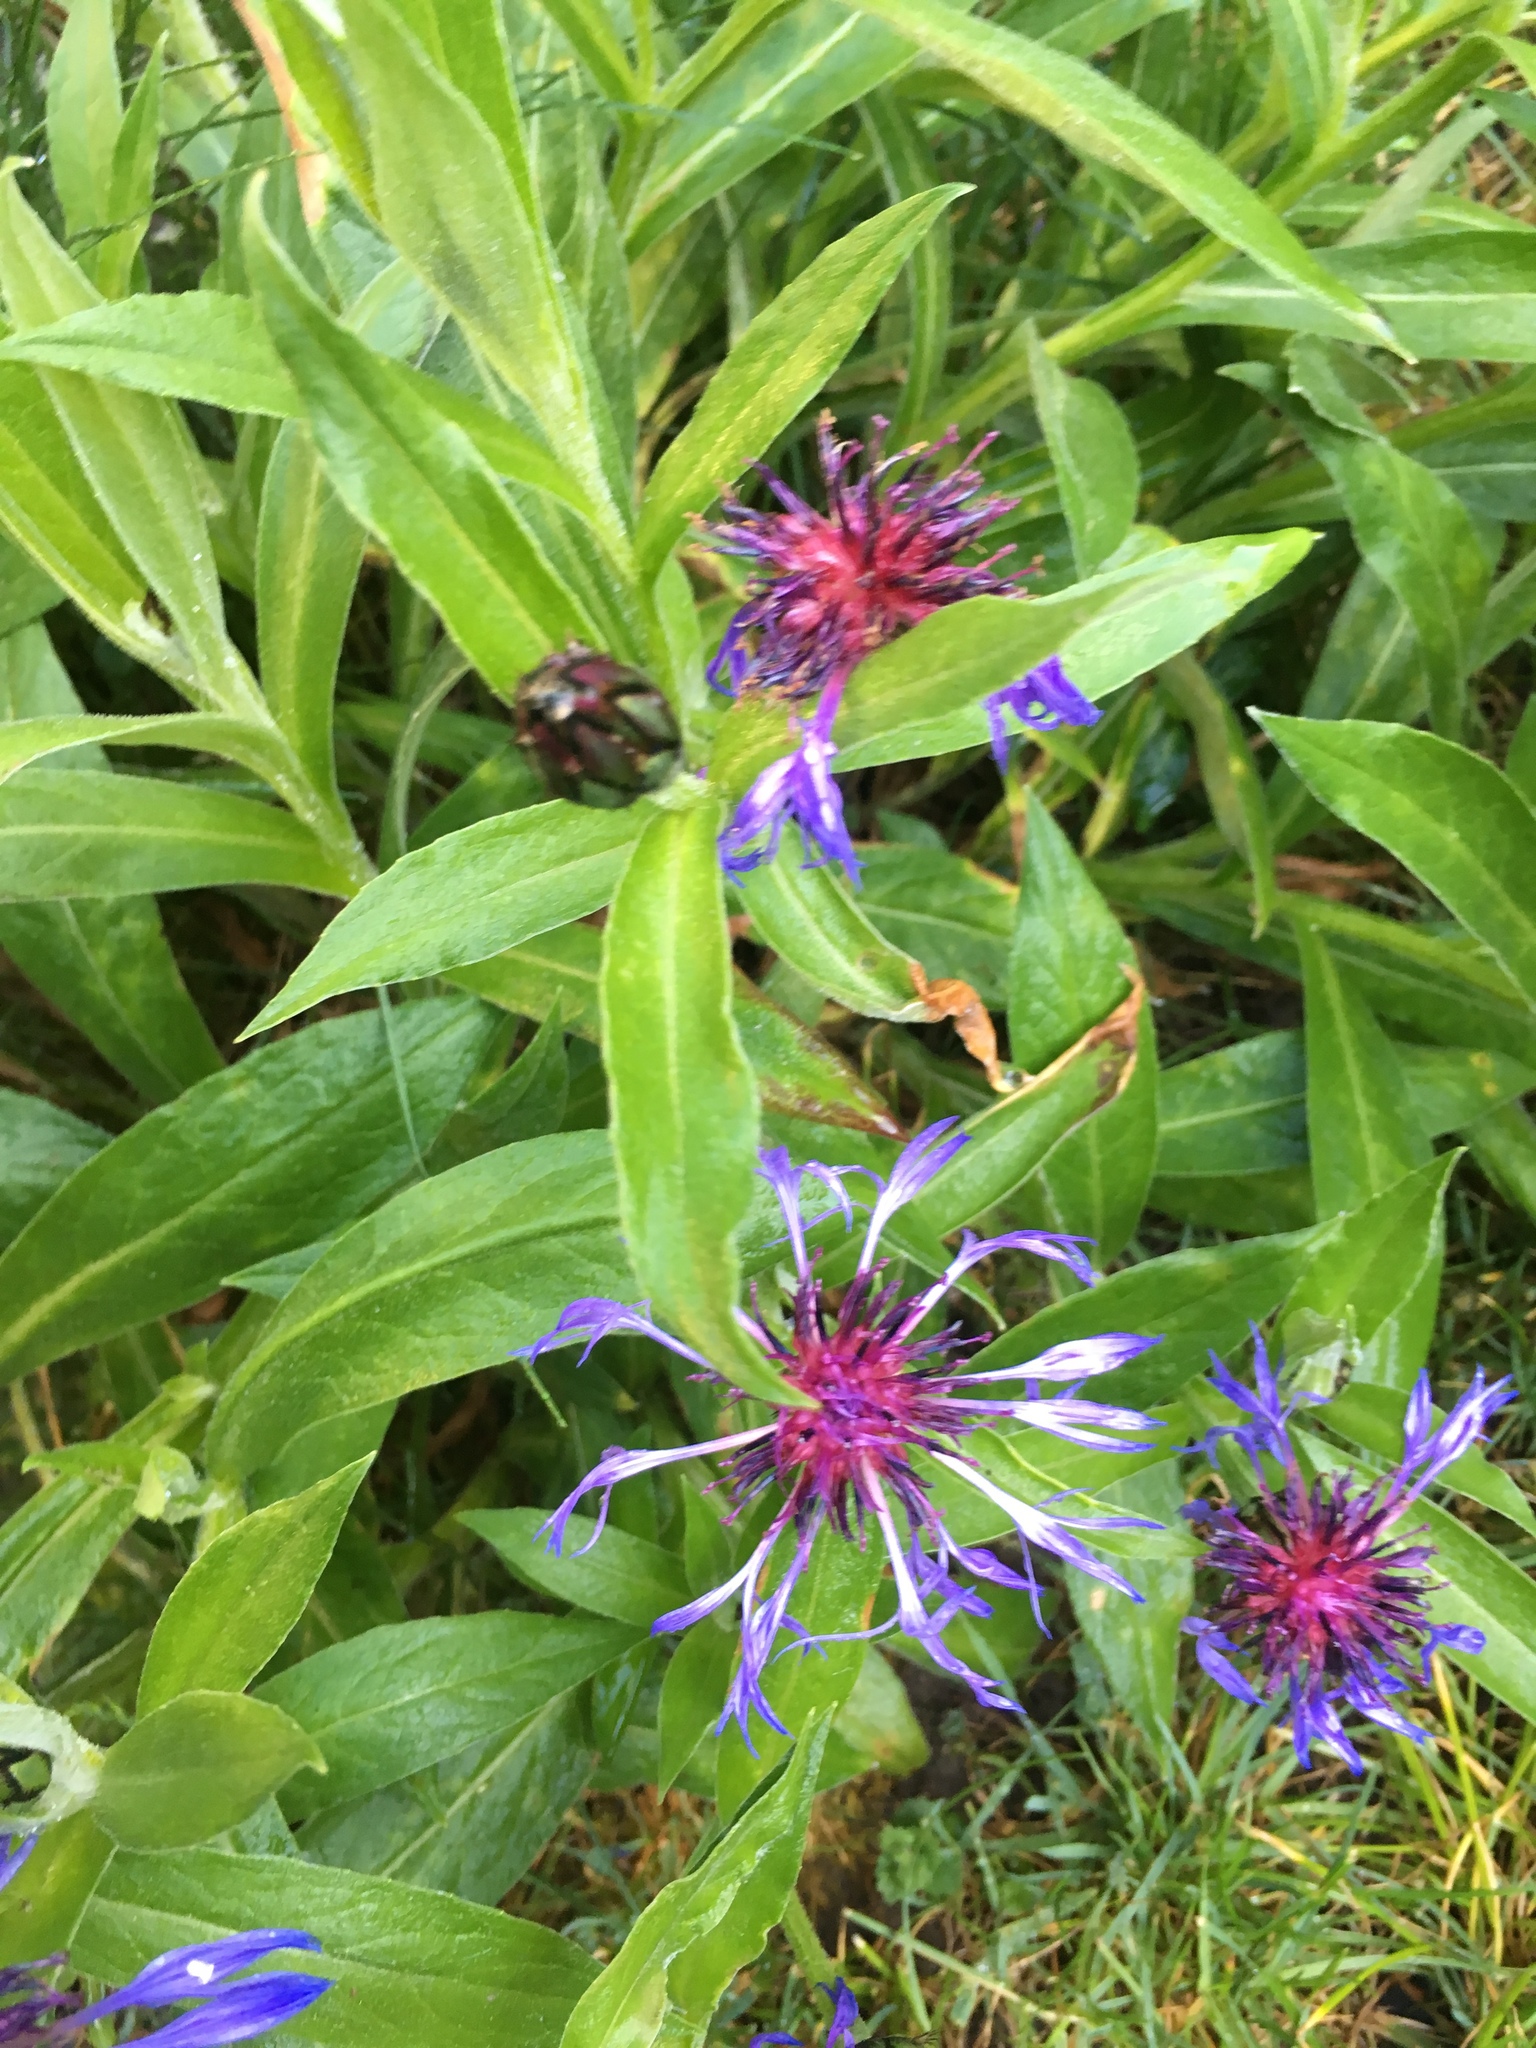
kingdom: Plantae
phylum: Tracheophyta
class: Magnoliopsida
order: Asterales
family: Asteraceae
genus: Centaurea
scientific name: Centaurea montana
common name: Perennial cornflower
